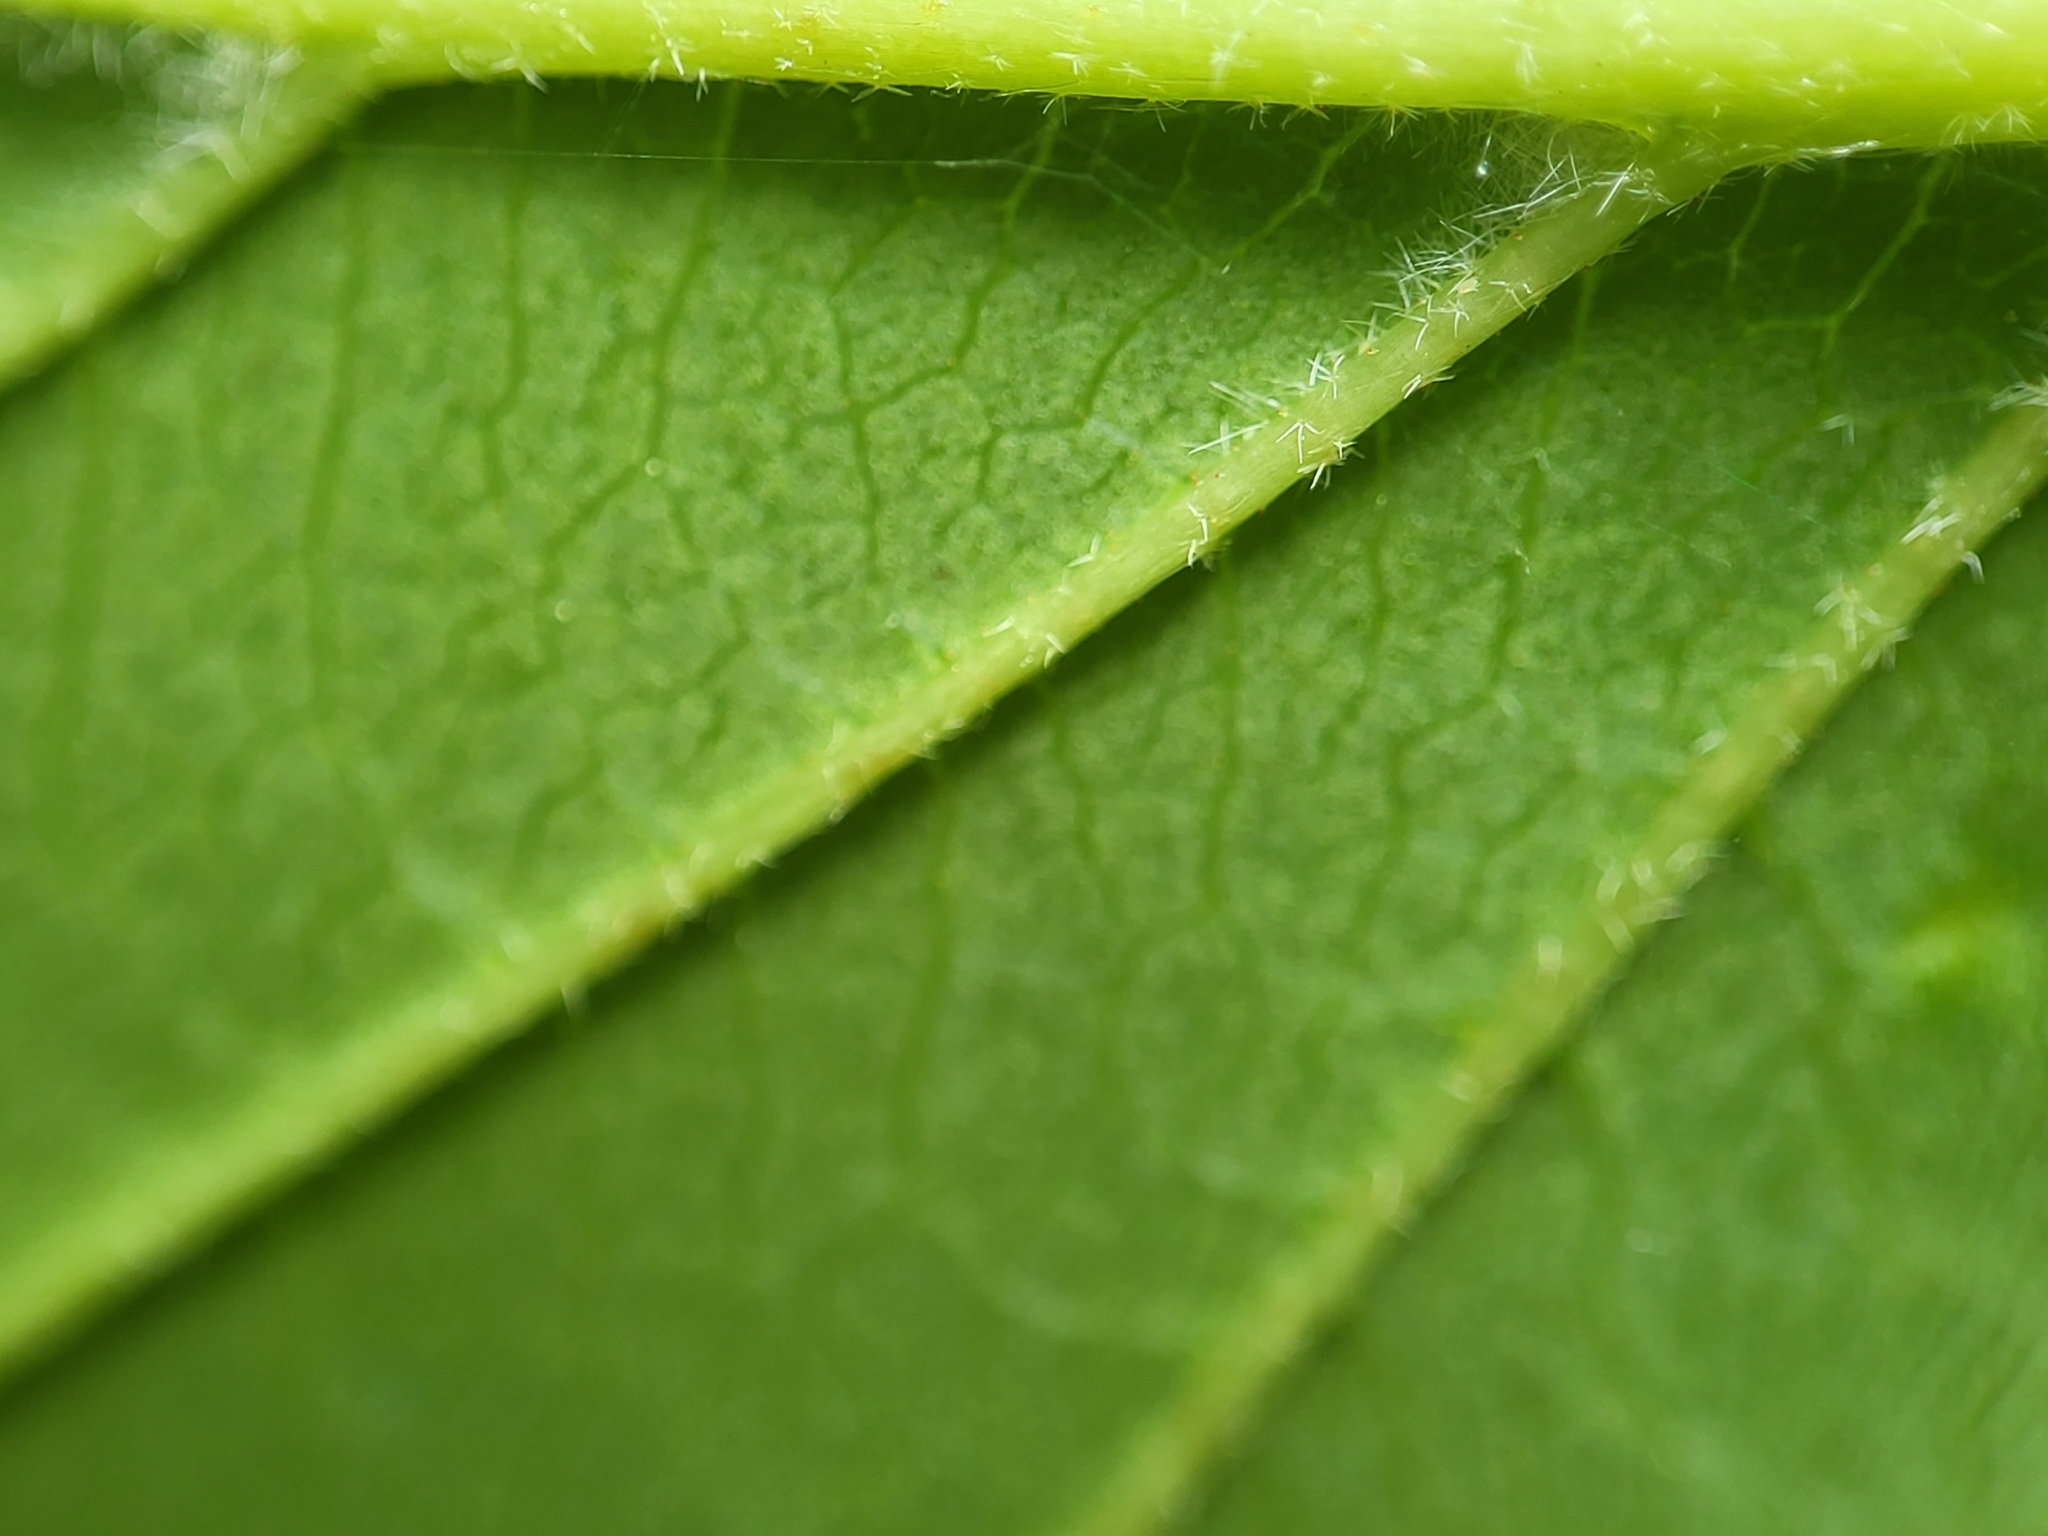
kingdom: Plantae
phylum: Tracheophyta
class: Magnoliopsida
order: Dipsacales
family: Viburnaceae
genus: Viburnum
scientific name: Viburnum dentatum
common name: Arrow-wood
